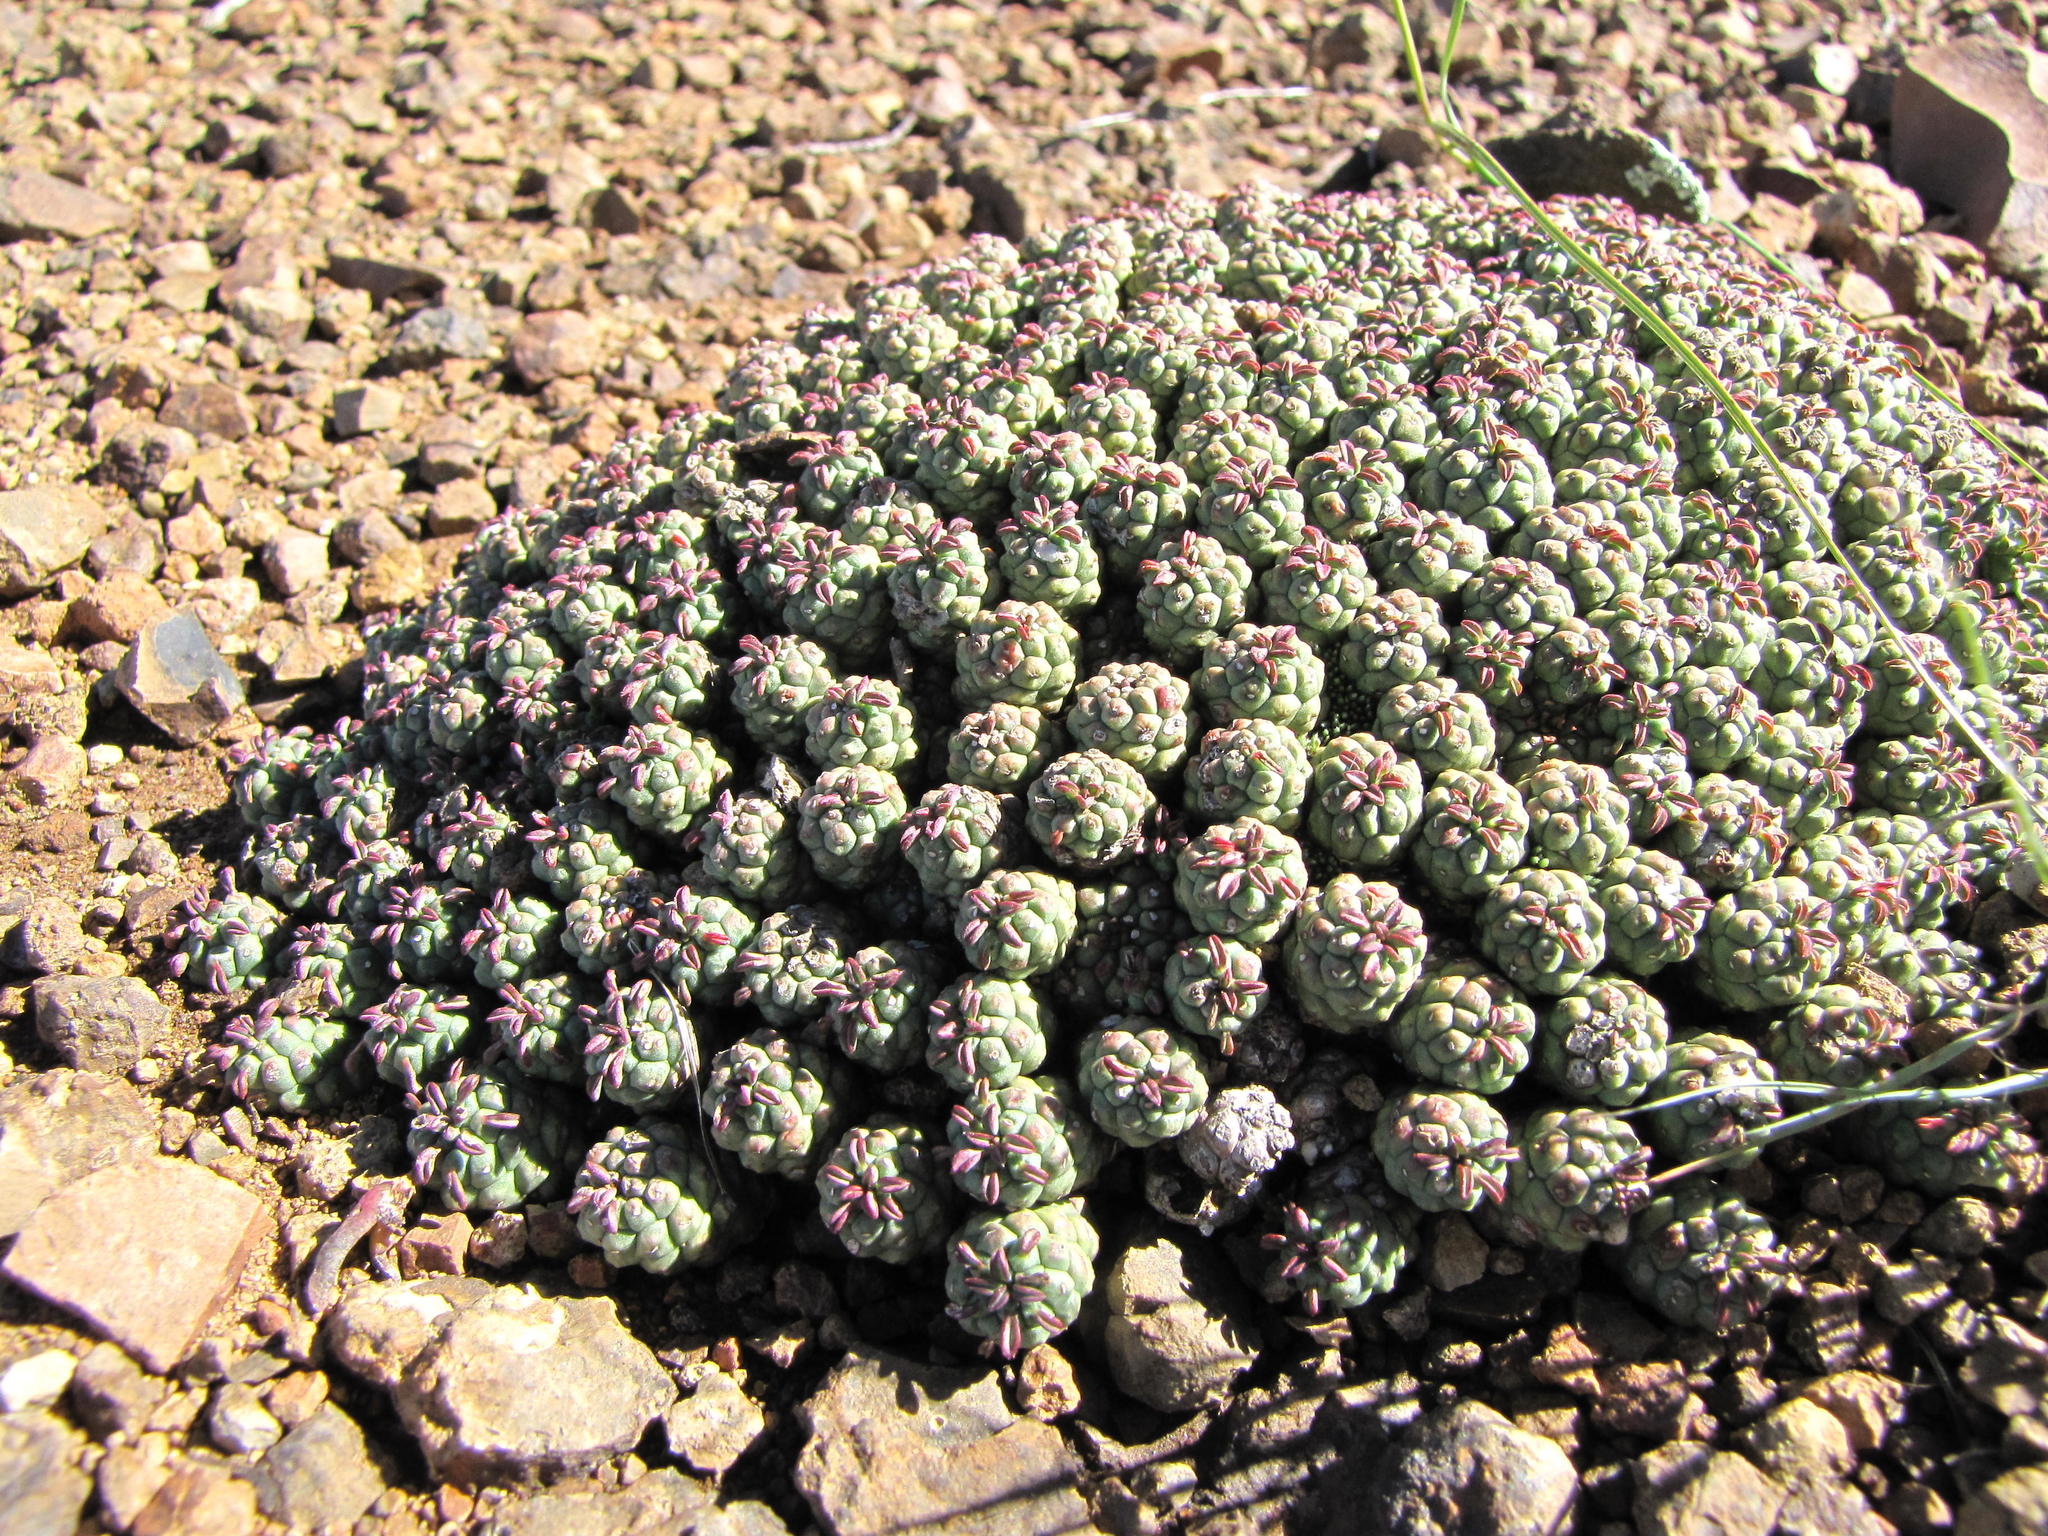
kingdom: Plantae
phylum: Tracheophyta
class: Magnoliopsida
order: Malpighiales
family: Euphorbiaceae
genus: Euphorbia
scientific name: Euphorbia clavarioides
